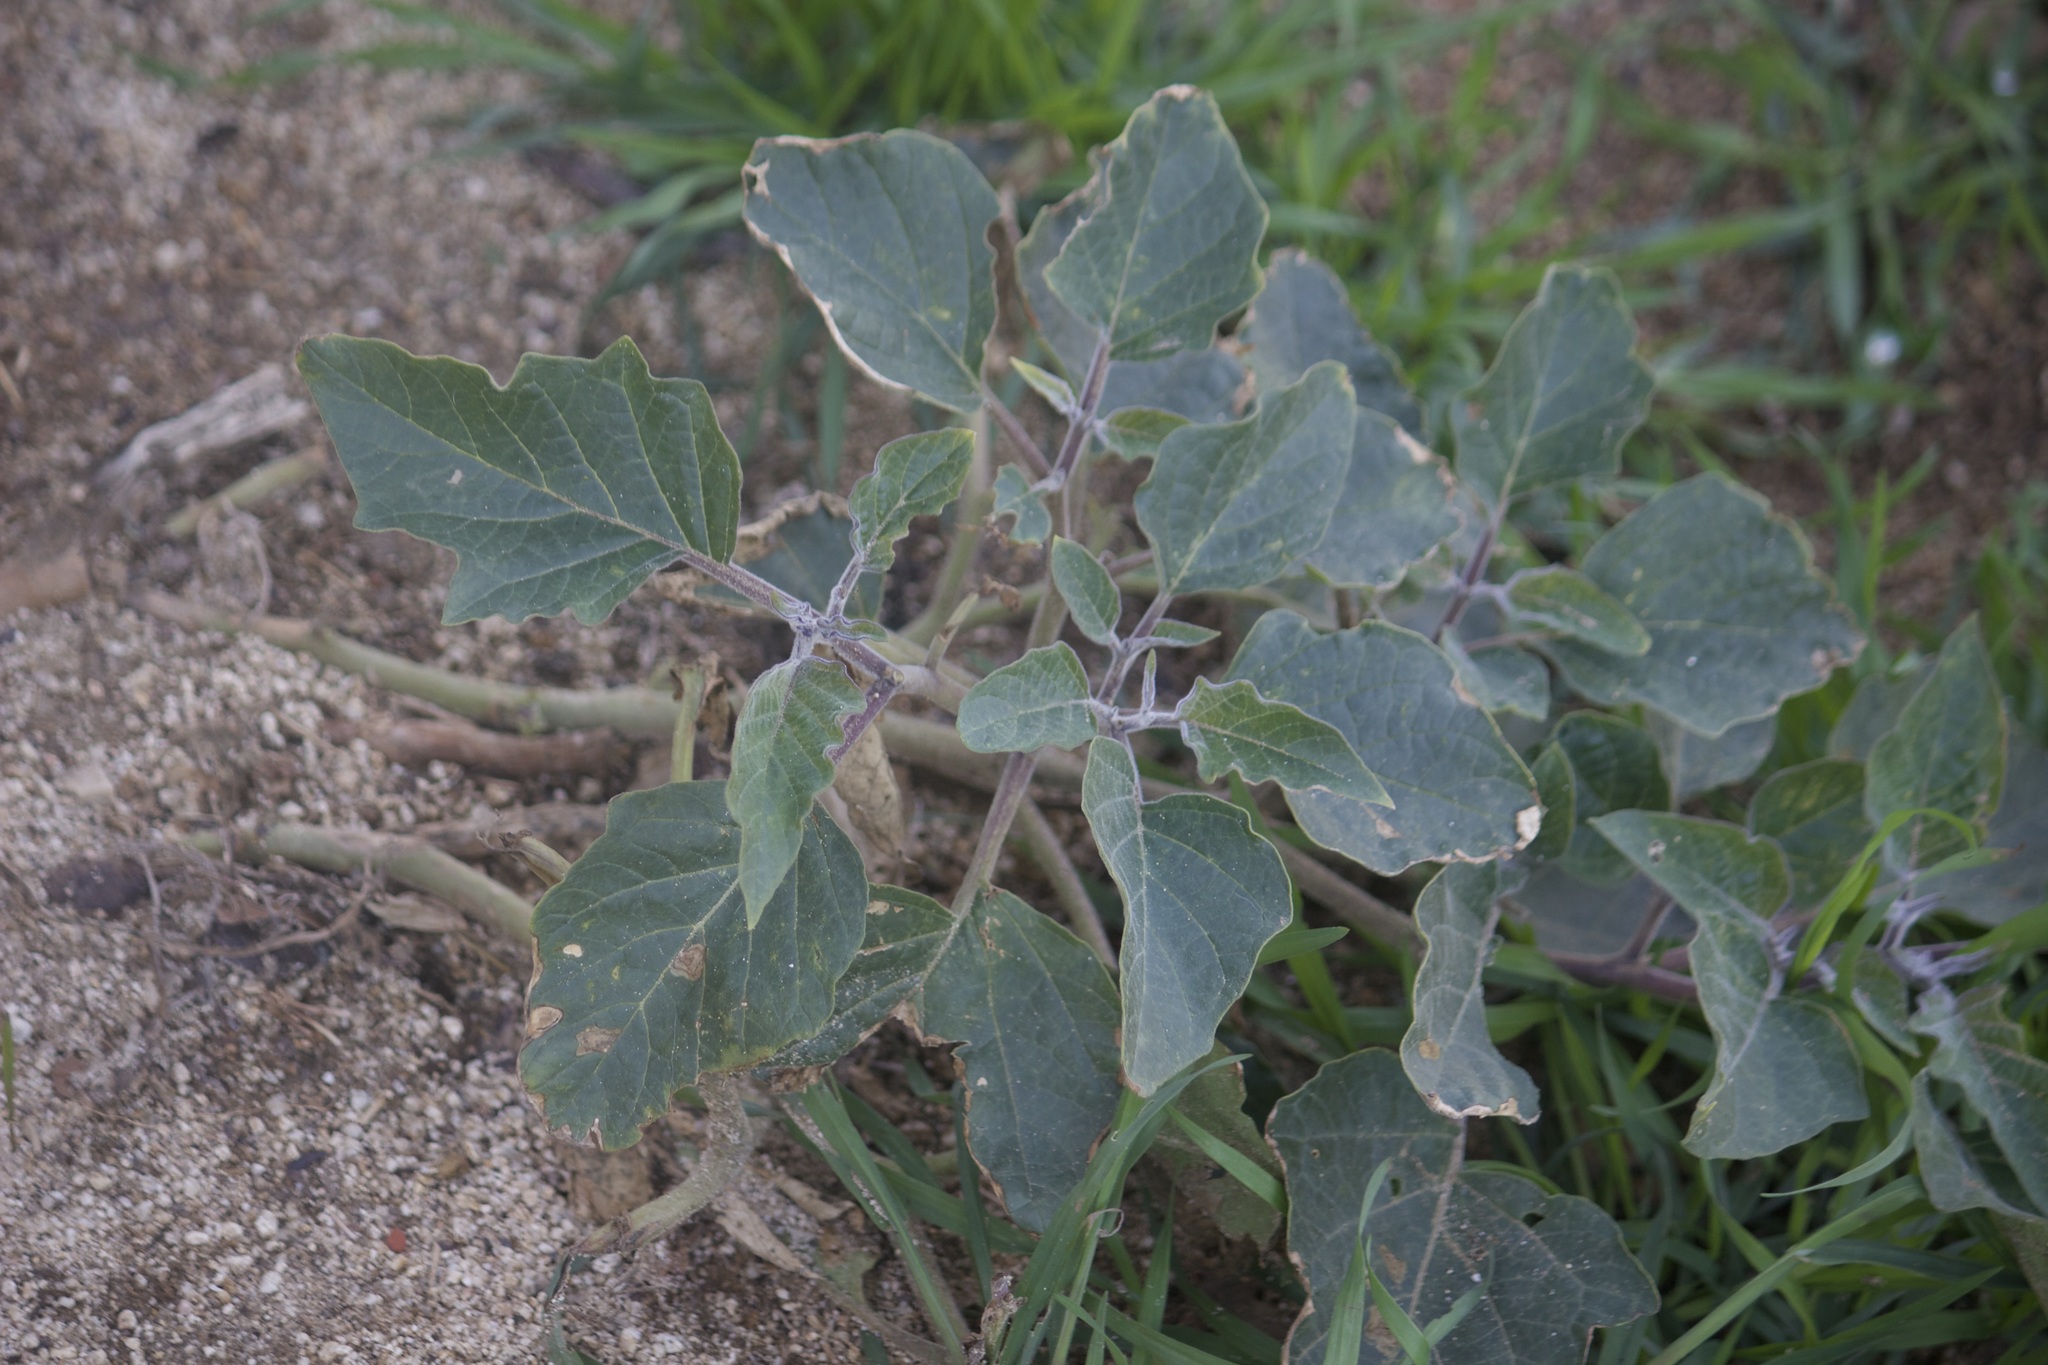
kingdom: Plantae
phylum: Tracheophyta
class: Magnoliopsida
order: Solanales
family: Solanaceae
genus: Datura
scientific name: Datura wrightii
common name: Sacred thorn-apple
